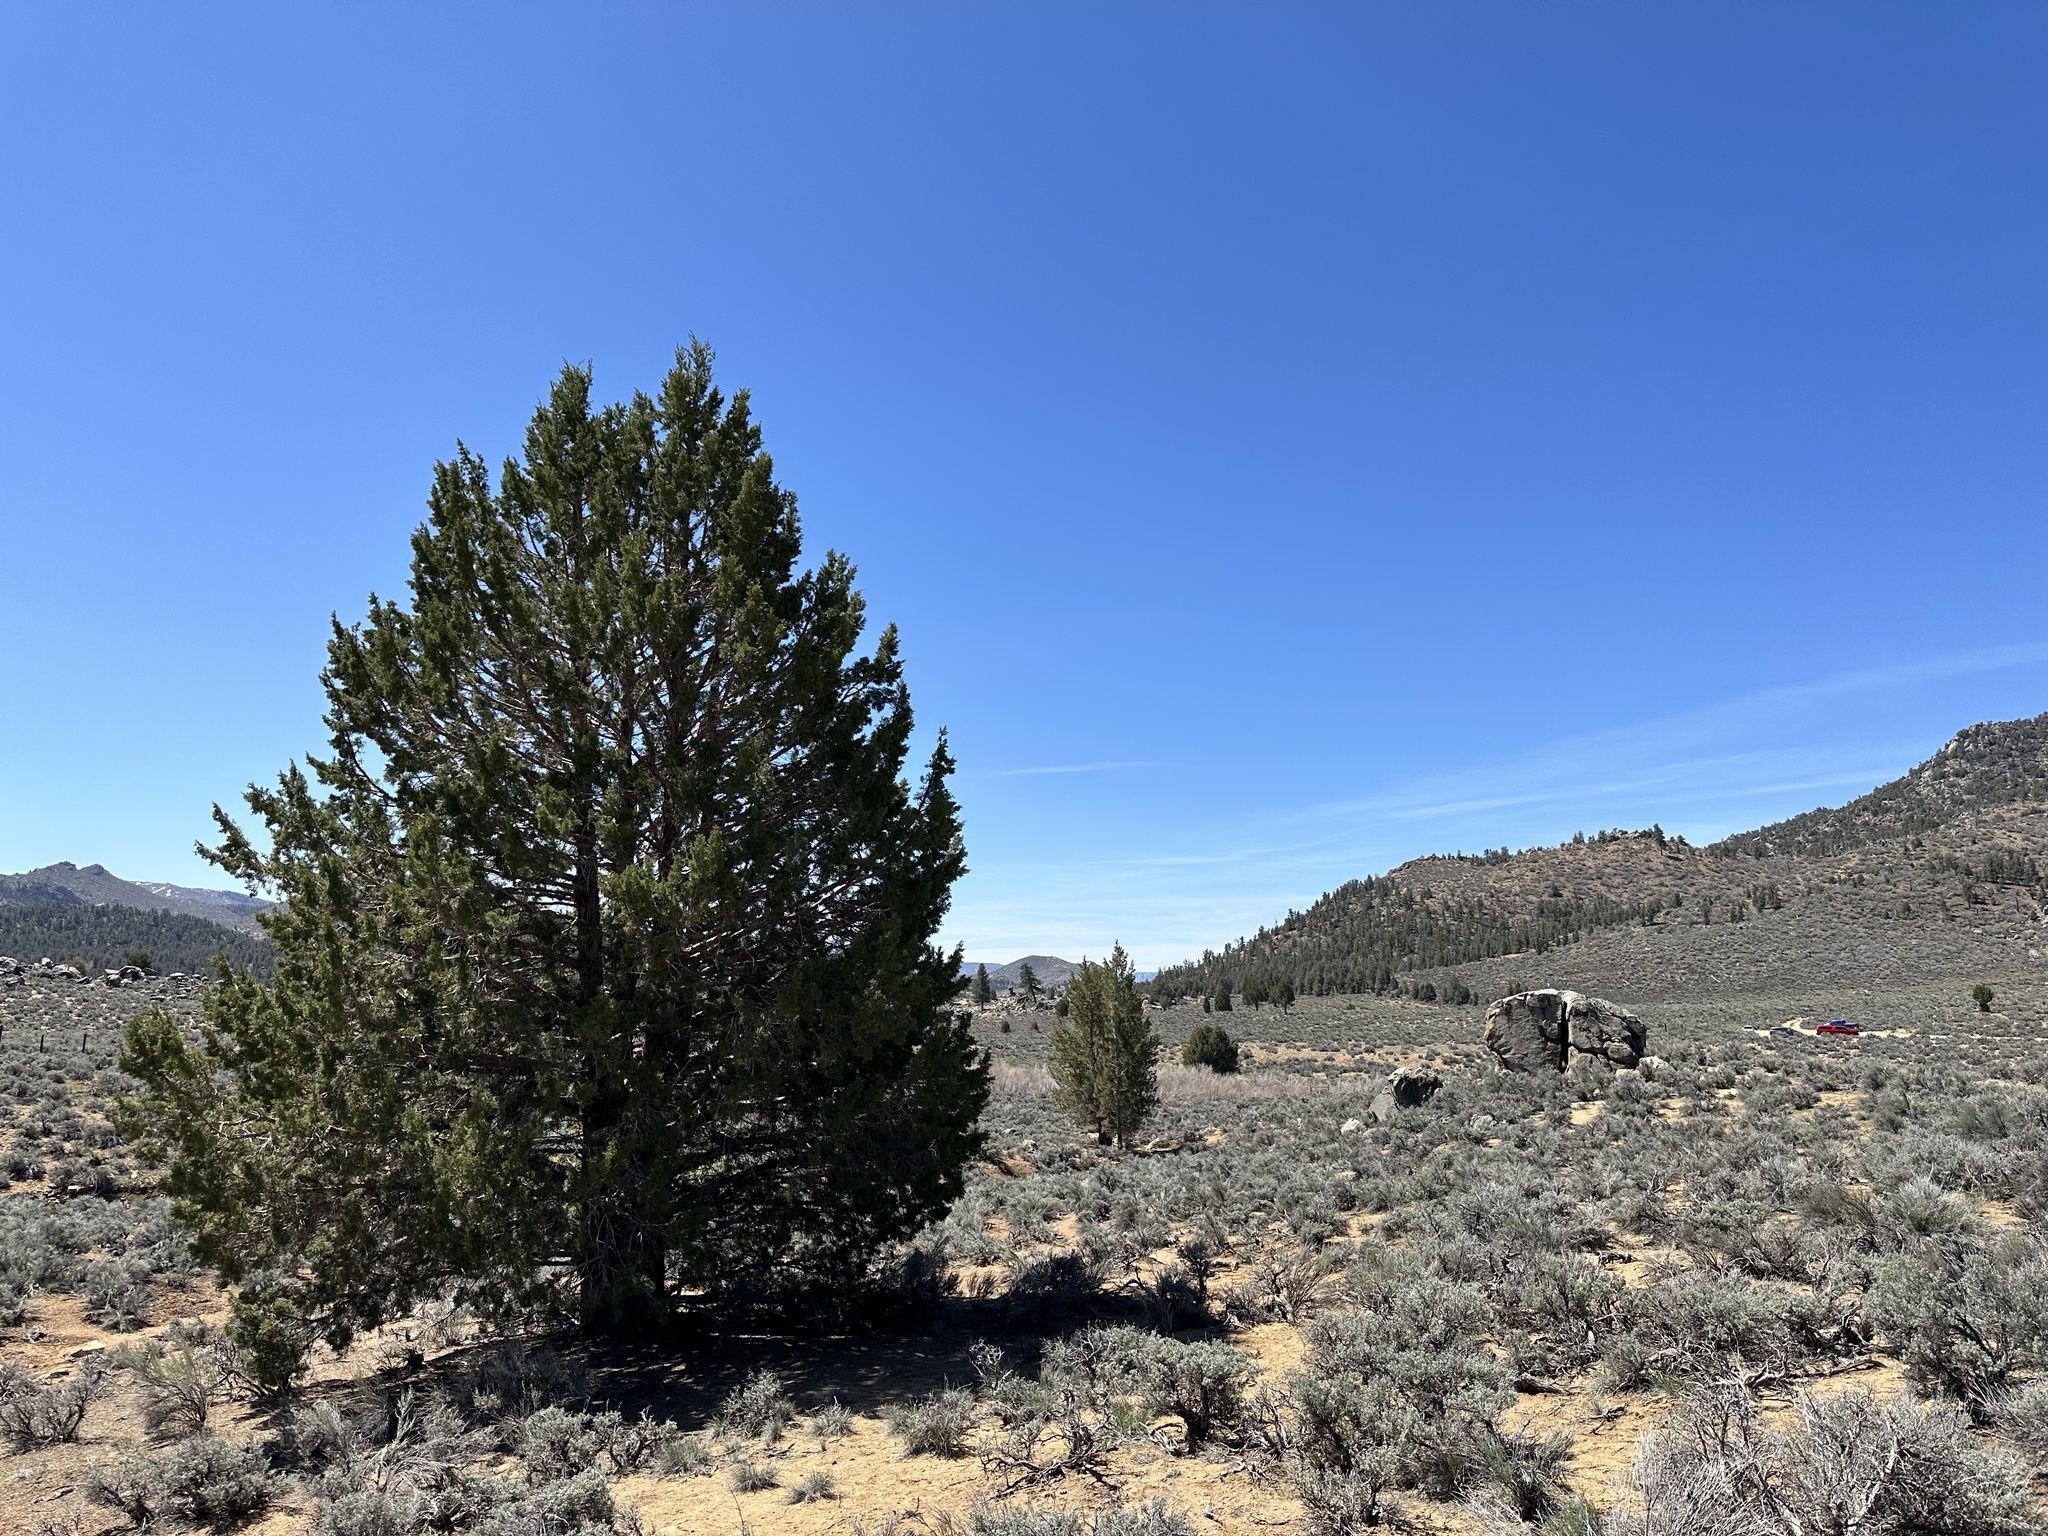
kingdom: Plantae
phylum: Tracheophyta
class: Pinopsida
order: Pinales
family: Cupressaceae
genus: Juniperus
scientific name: Juniperus occidentalis
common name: Western juniper
